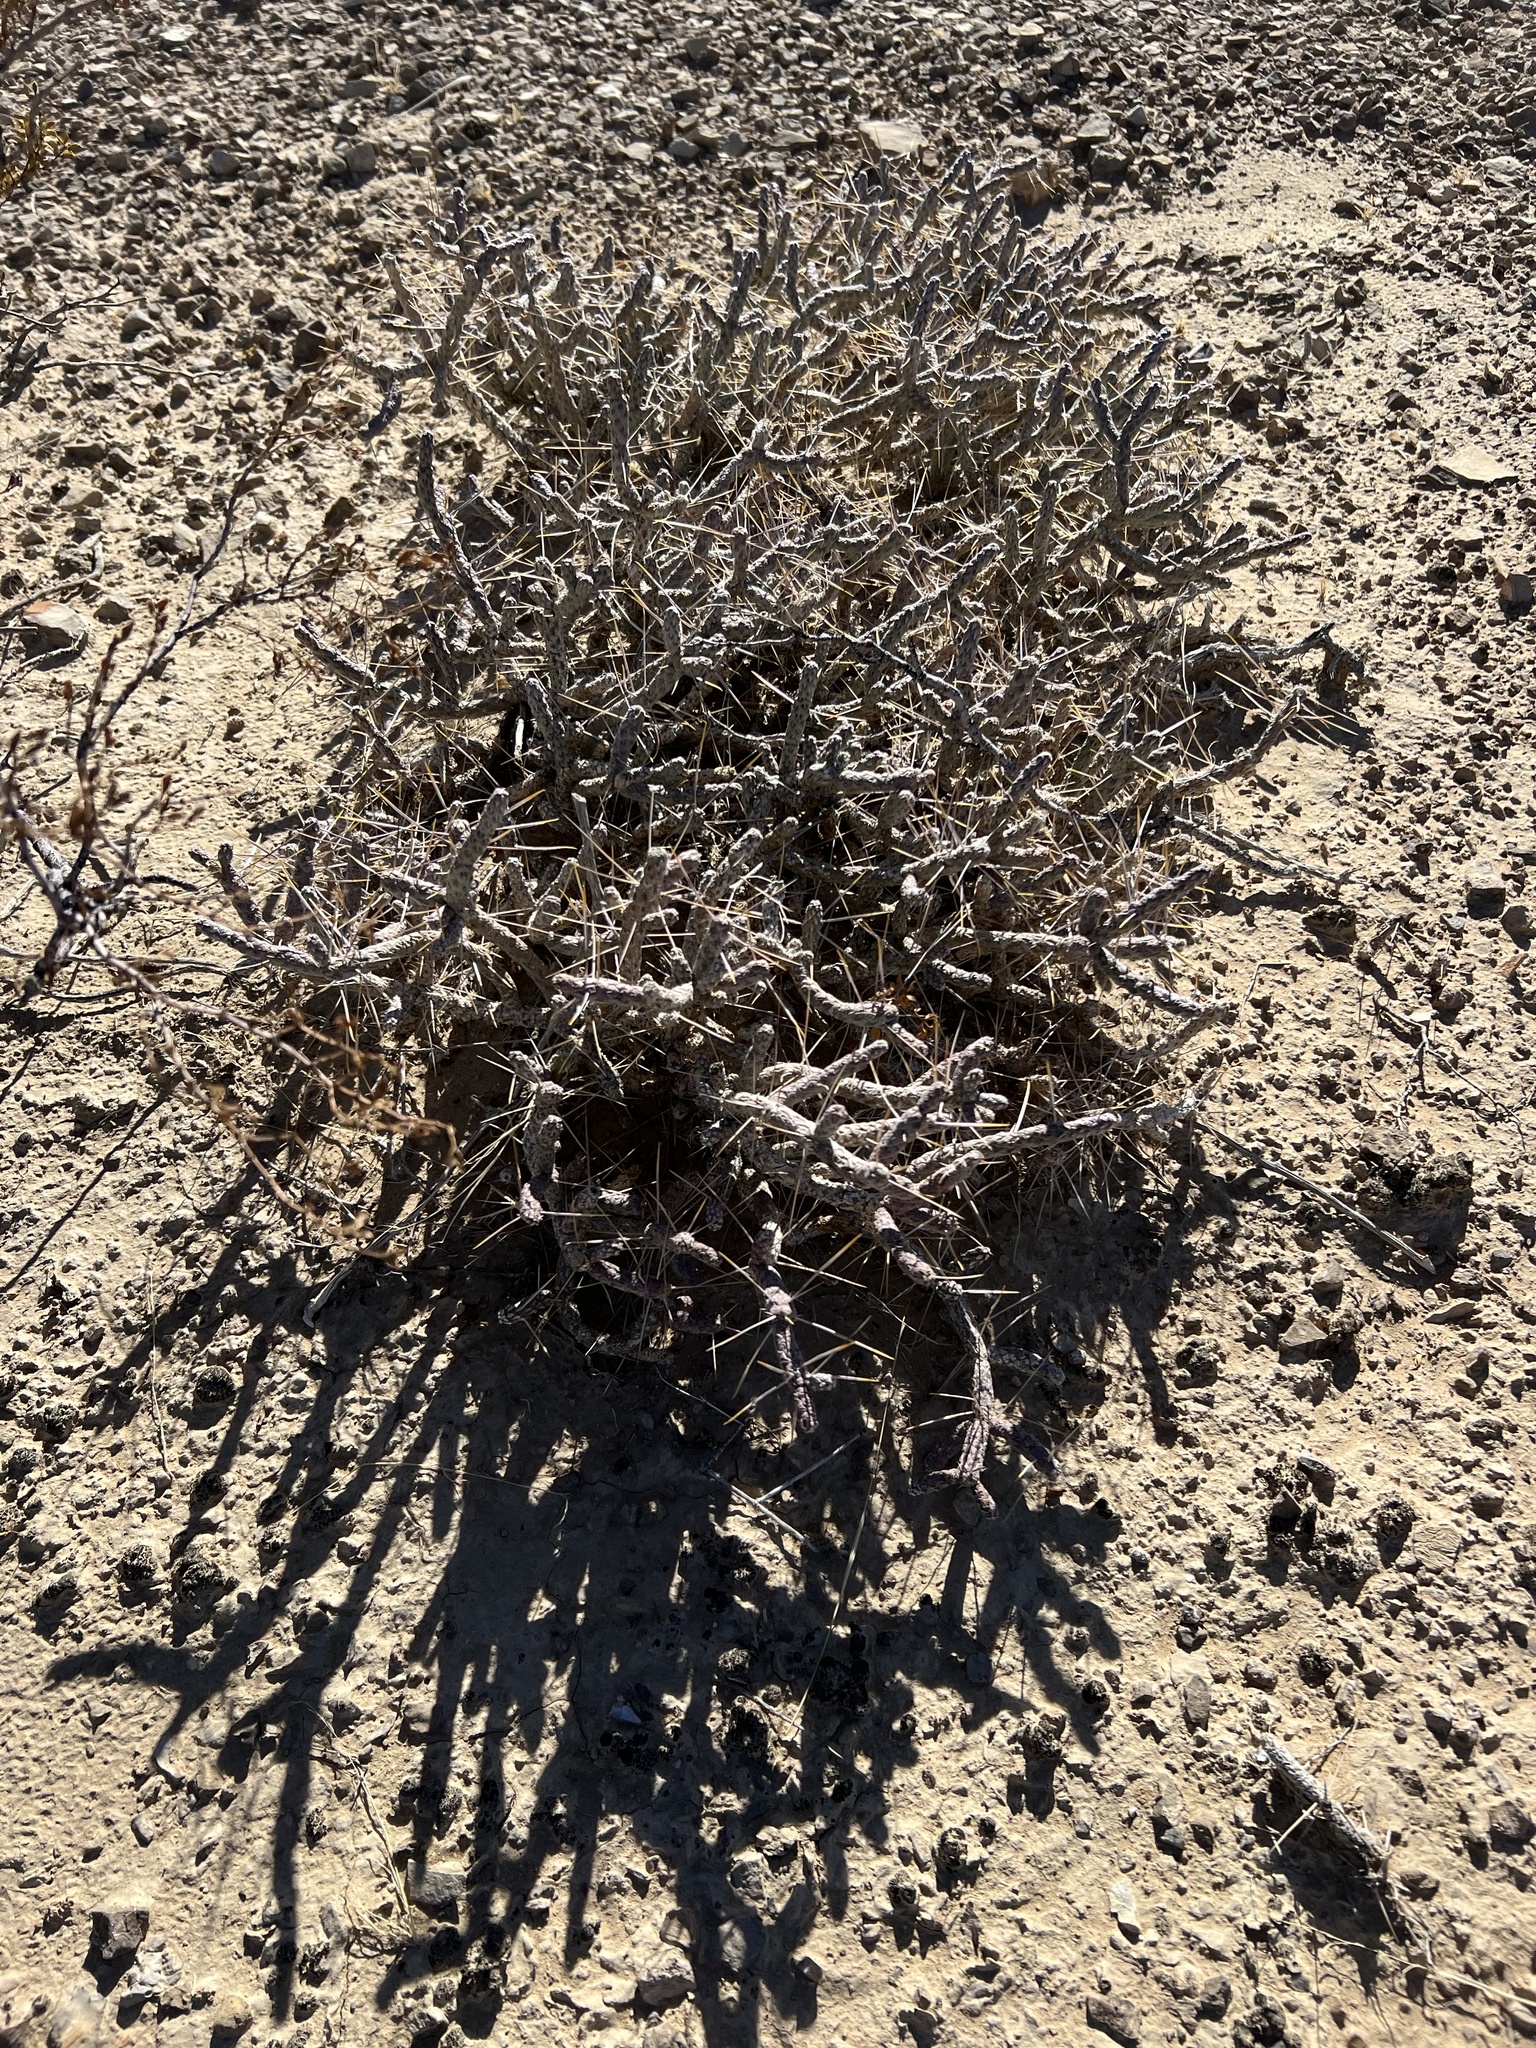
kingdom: Plantae
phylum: Tracheophyta
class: Magnoliopsida
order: Caryophyllales
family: Cactaceae
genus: Cylindropuntia
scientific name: Cylindropuntia ramosissima
